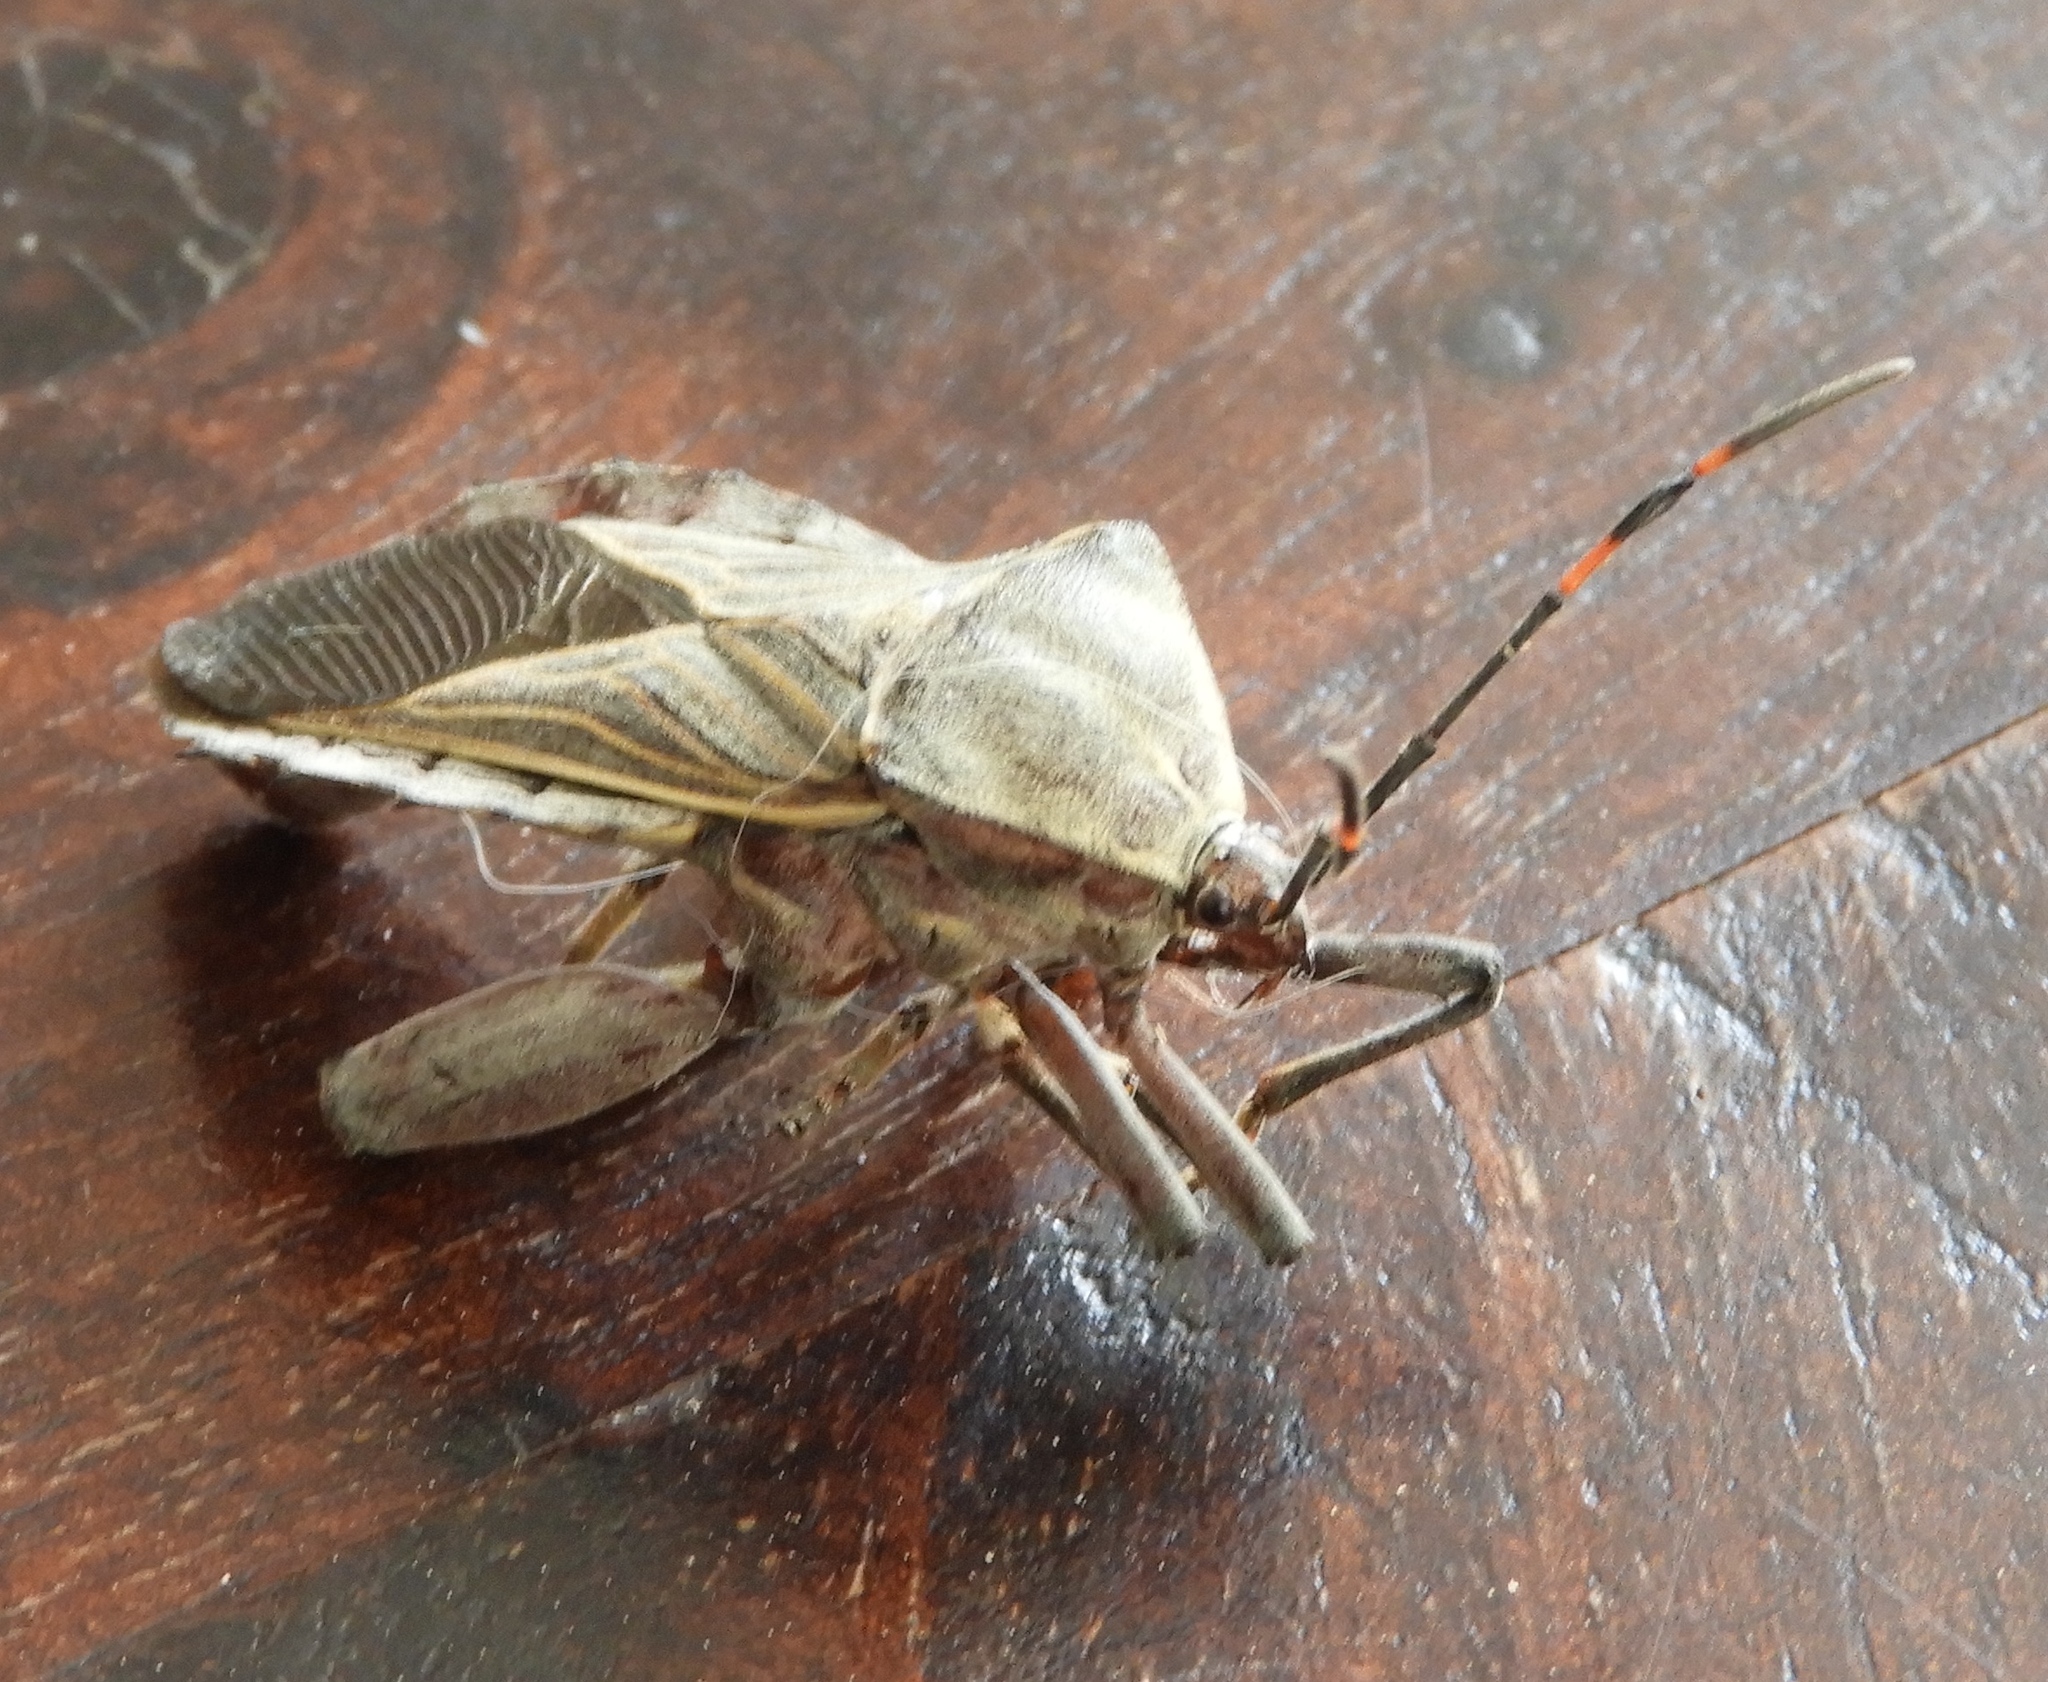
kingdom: Animalia
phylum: Arthropoda
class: Insecta
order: Hemiptera
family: Coreidae
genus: Pachylis
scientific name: Pachylis nervosus
